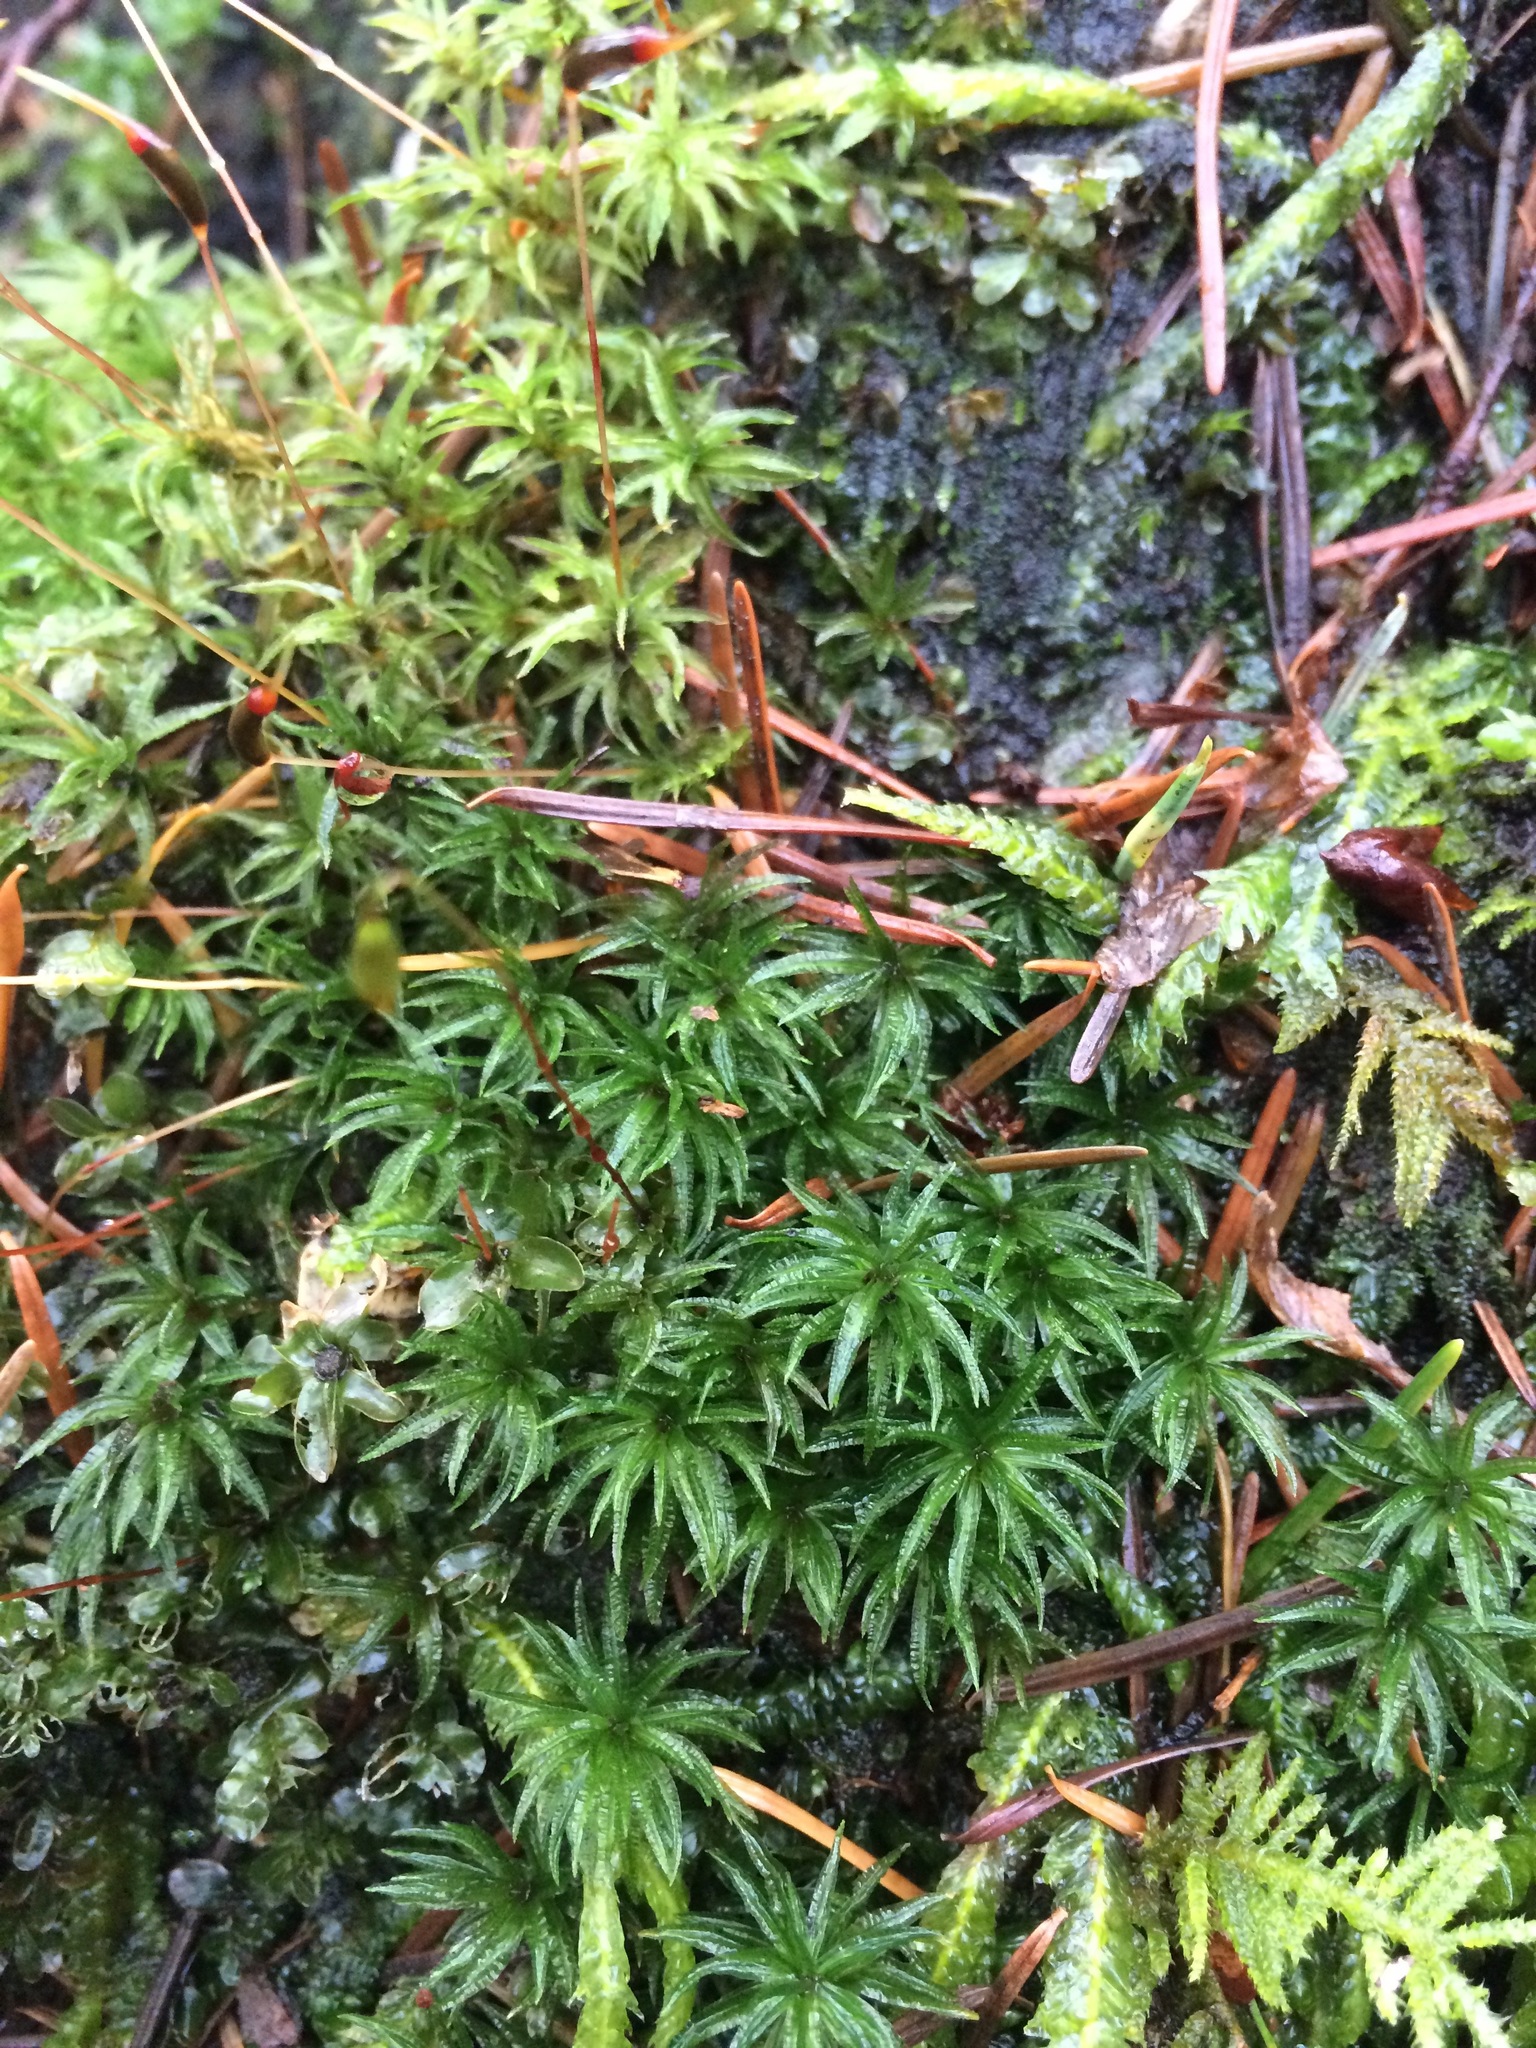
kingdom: Plantae
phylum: Bryophyta
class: Polytrichopsida
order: Polytrichales
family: Polytrichaceae
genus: Atrichum
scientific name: Atrichum undulatum
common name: Common smoothcap
